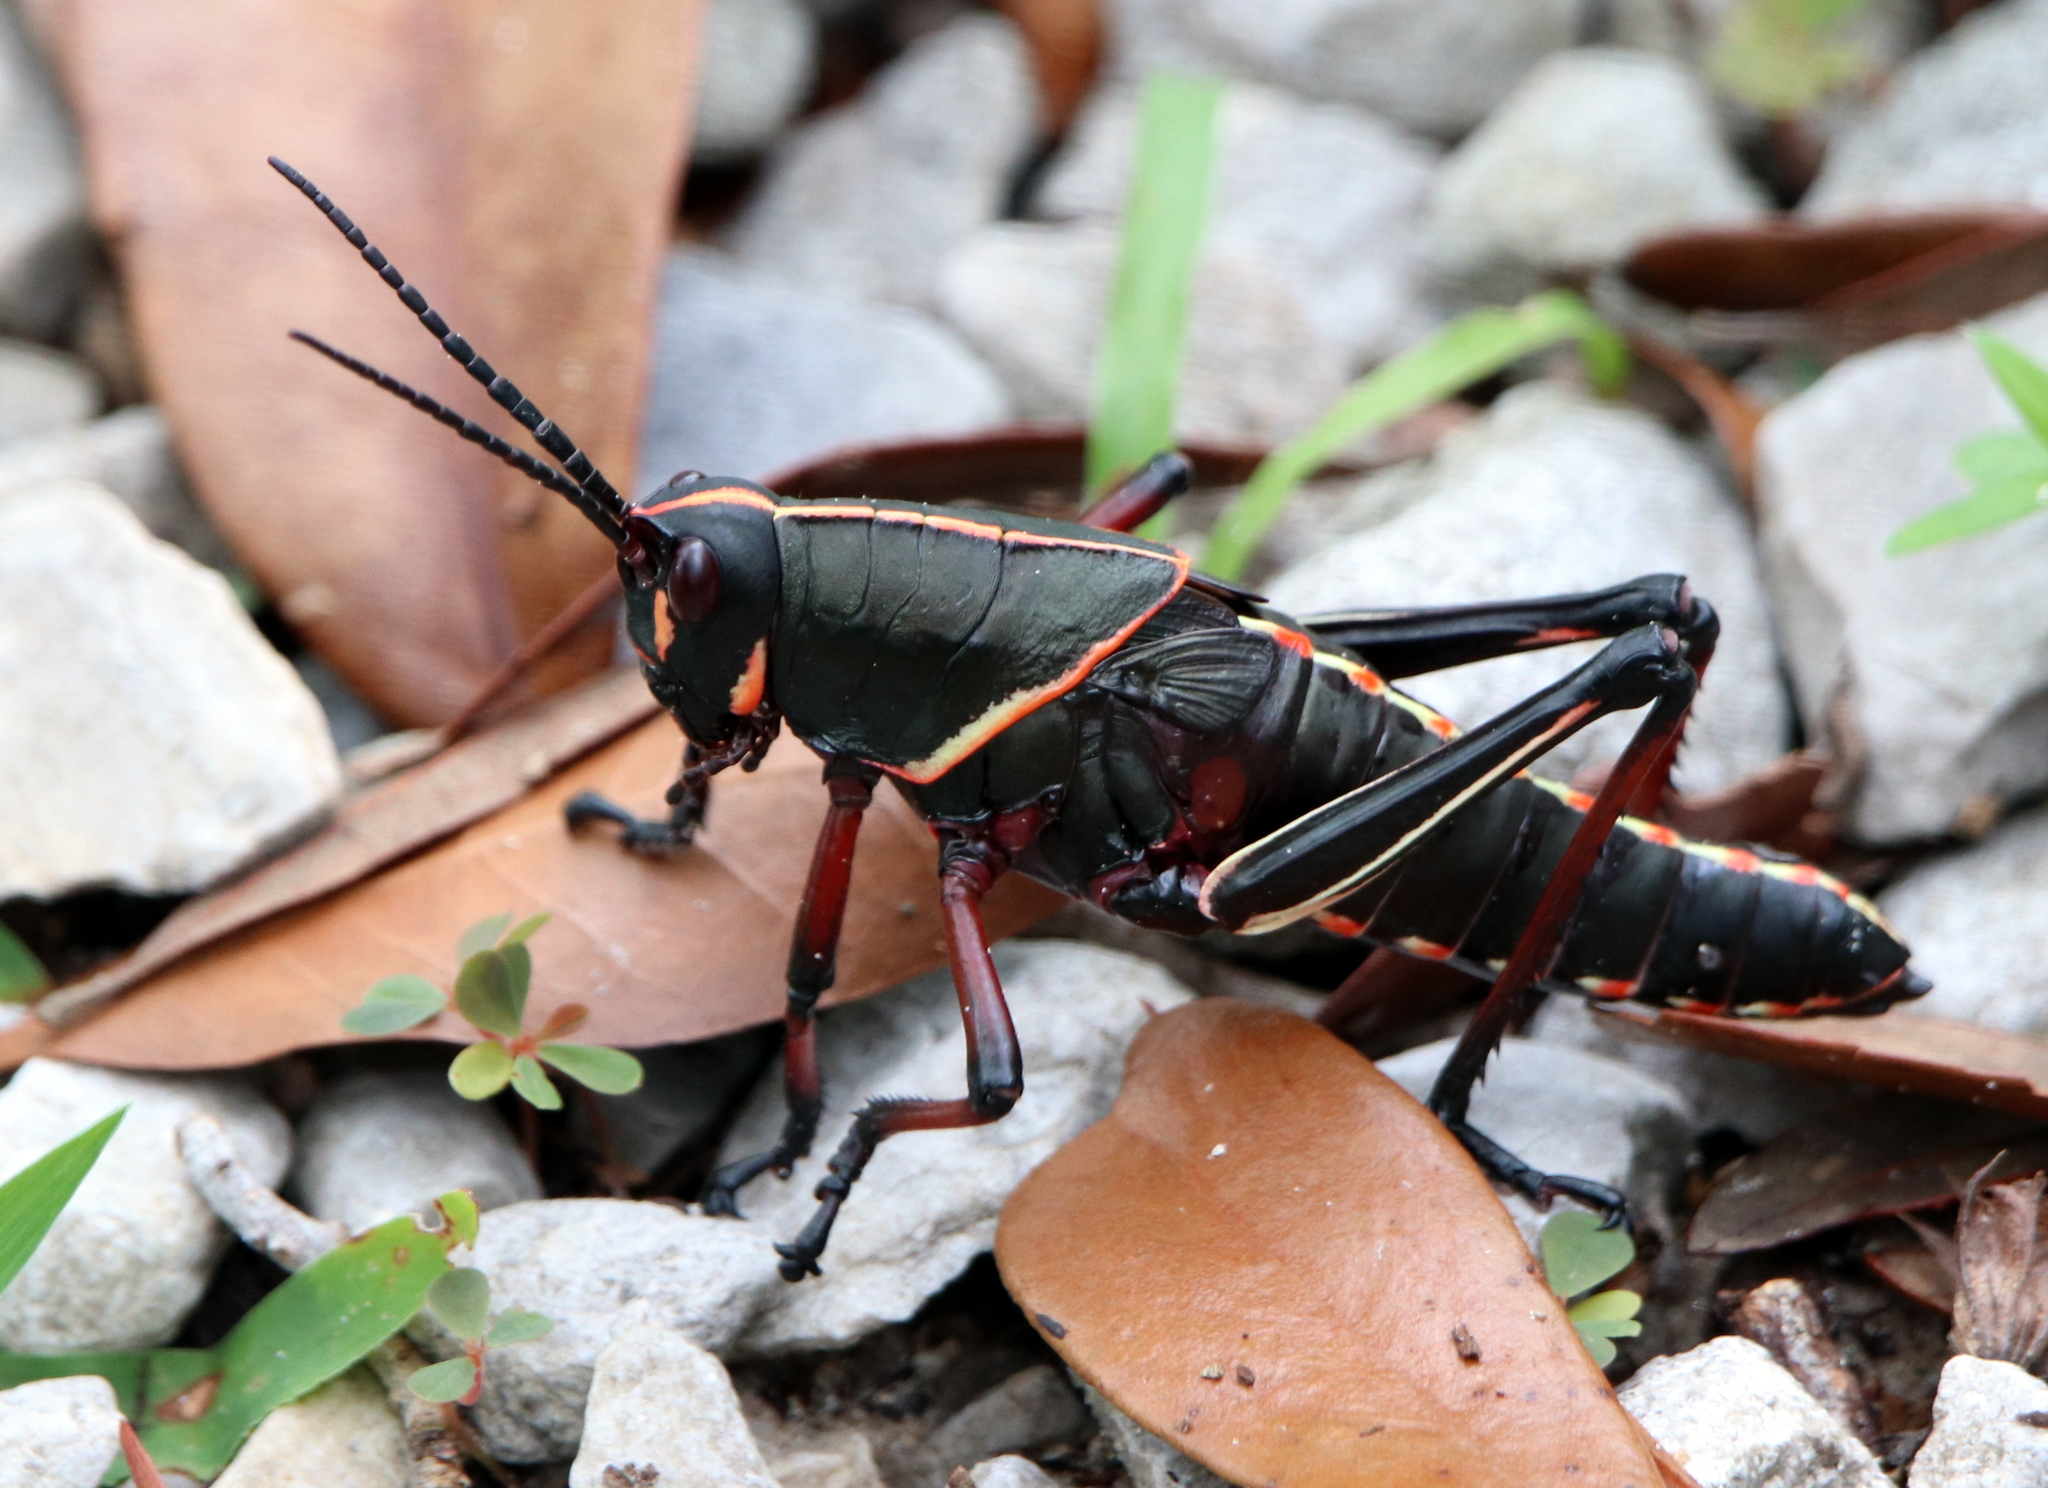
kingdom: Animalia
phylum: Arthropoda
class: Insecta
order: Orthoptera
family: Romaleidae
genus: Romalea
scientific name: Romalea microptera
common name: Eastern lubber grasshopper
